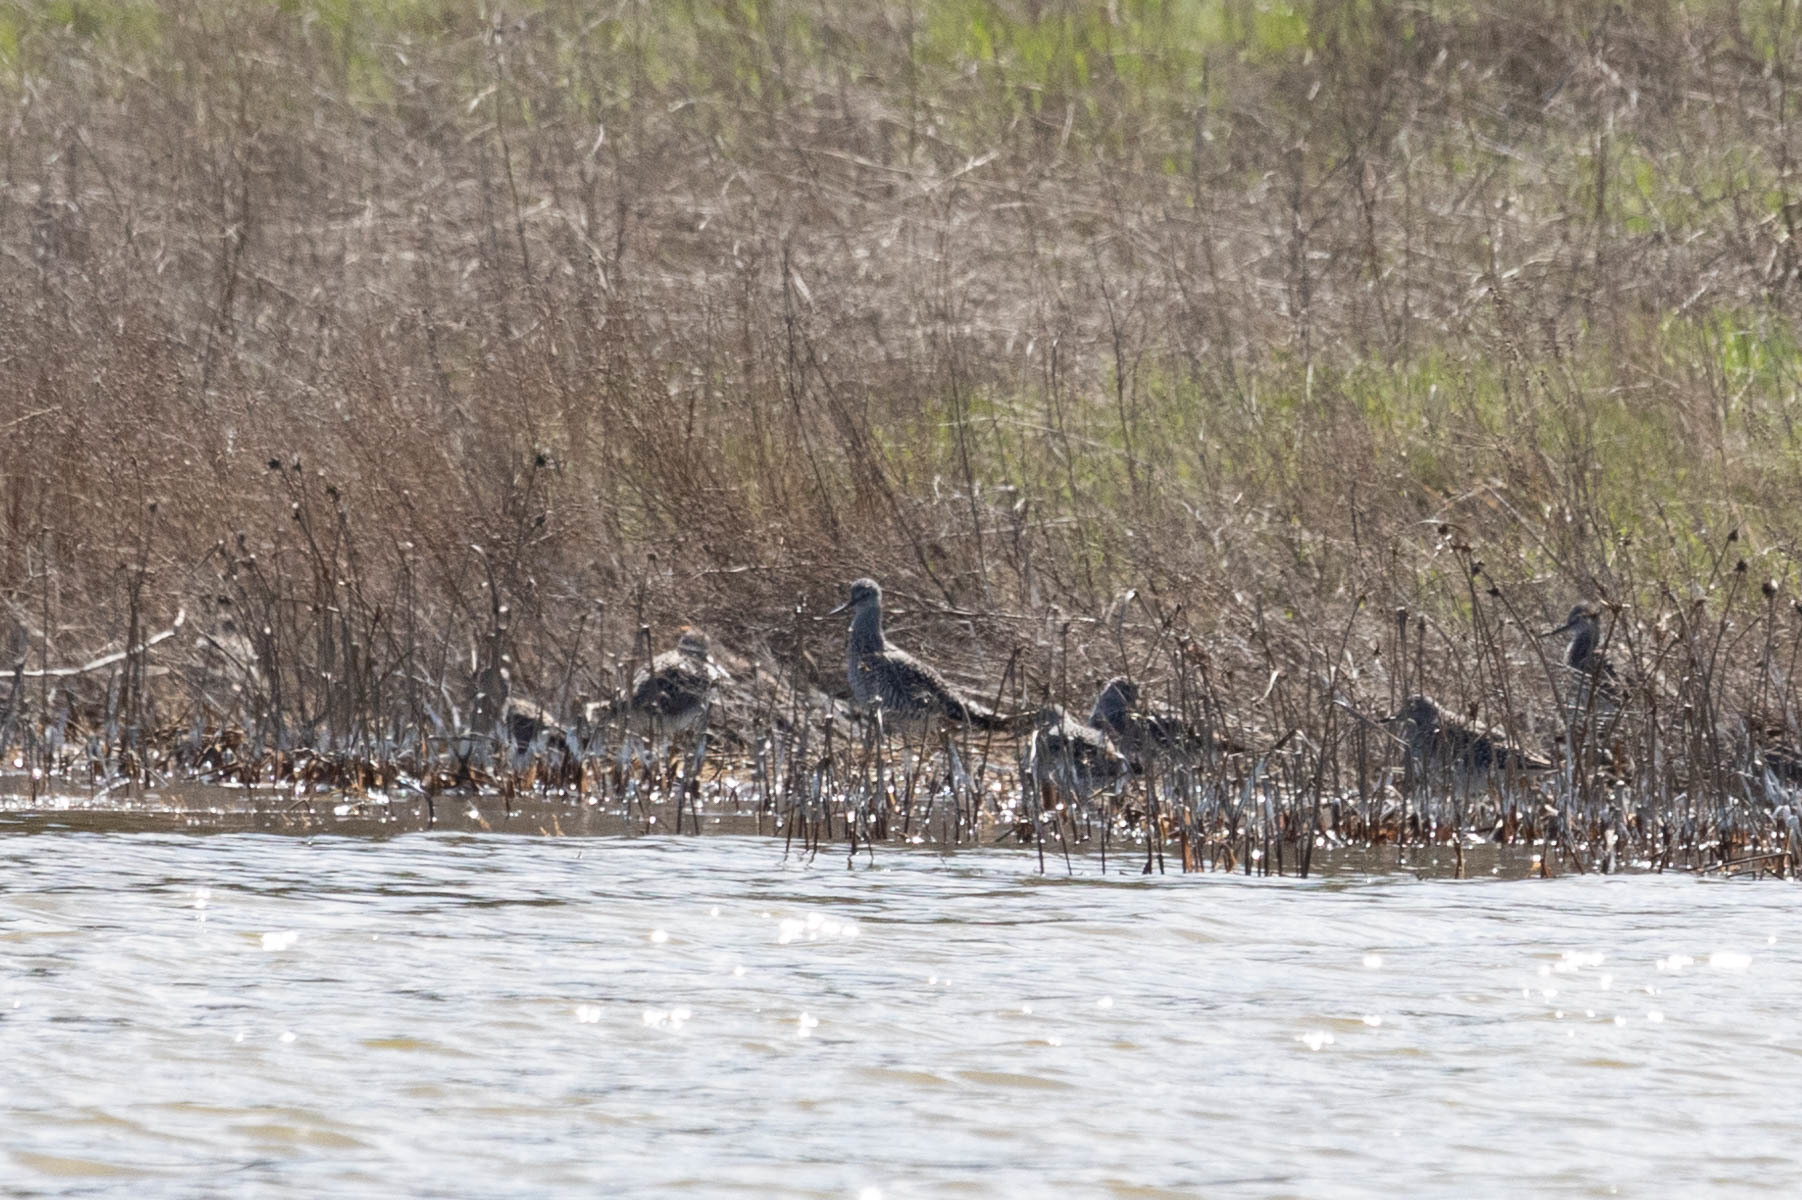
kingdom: Animalia
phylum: Chordata
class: Aves
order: Charadriiformes
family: Scolopacidae
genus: Tringa
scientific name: Tringa melanoleuca
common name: Greater yellowlegs
